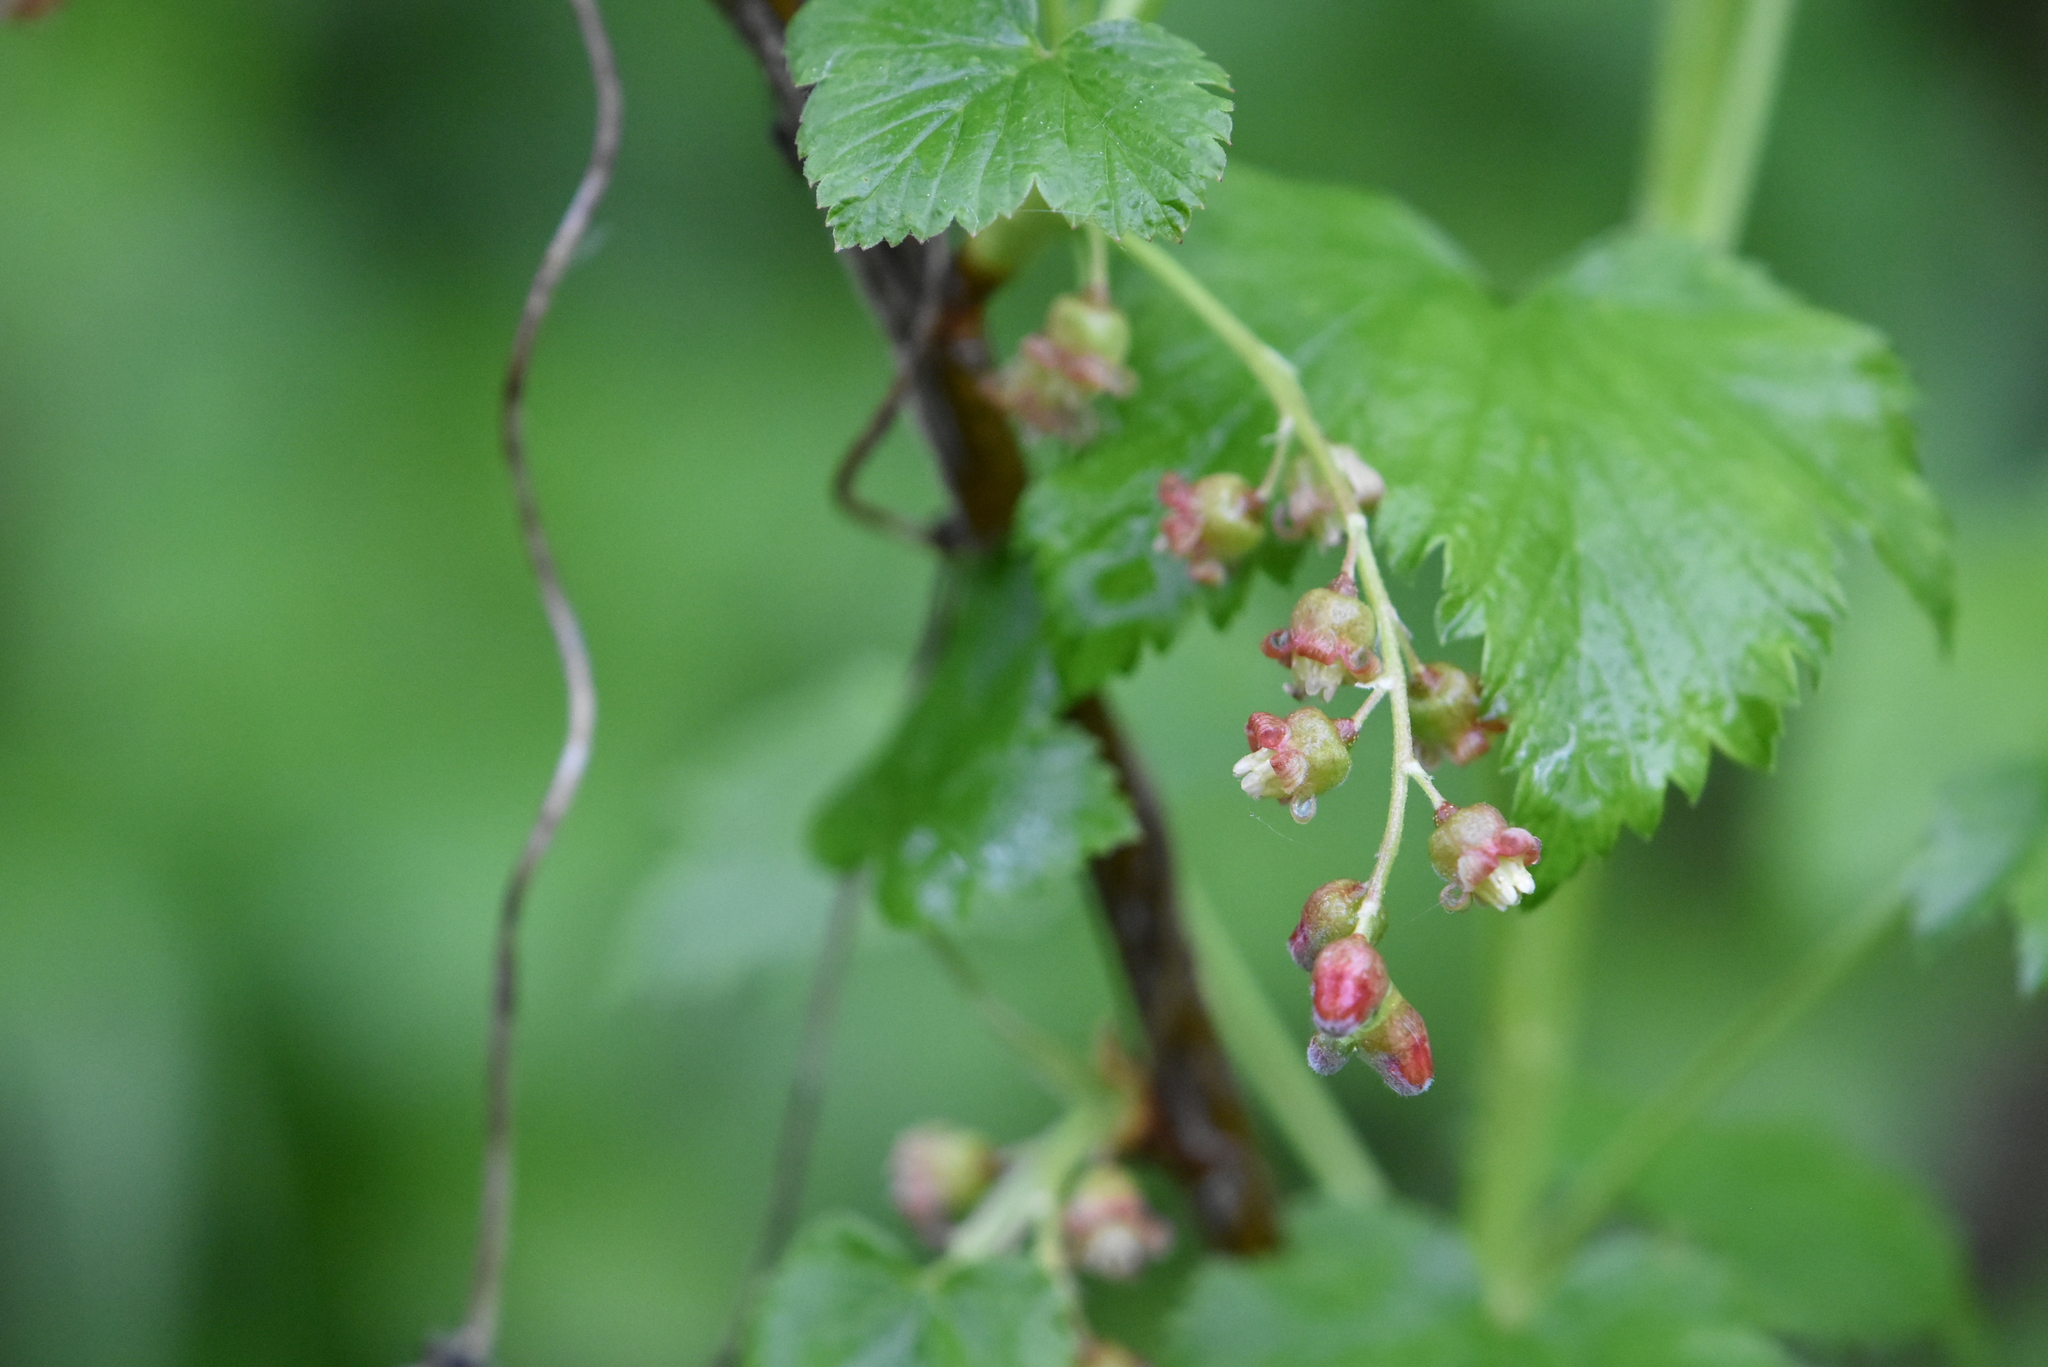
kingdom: Plantae
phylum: Tracheophyta
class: Magnoliopsida
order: Saxifragales
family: Grossulariaceae
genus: Ribes
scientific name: Ribes nigrum
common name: Black currant
